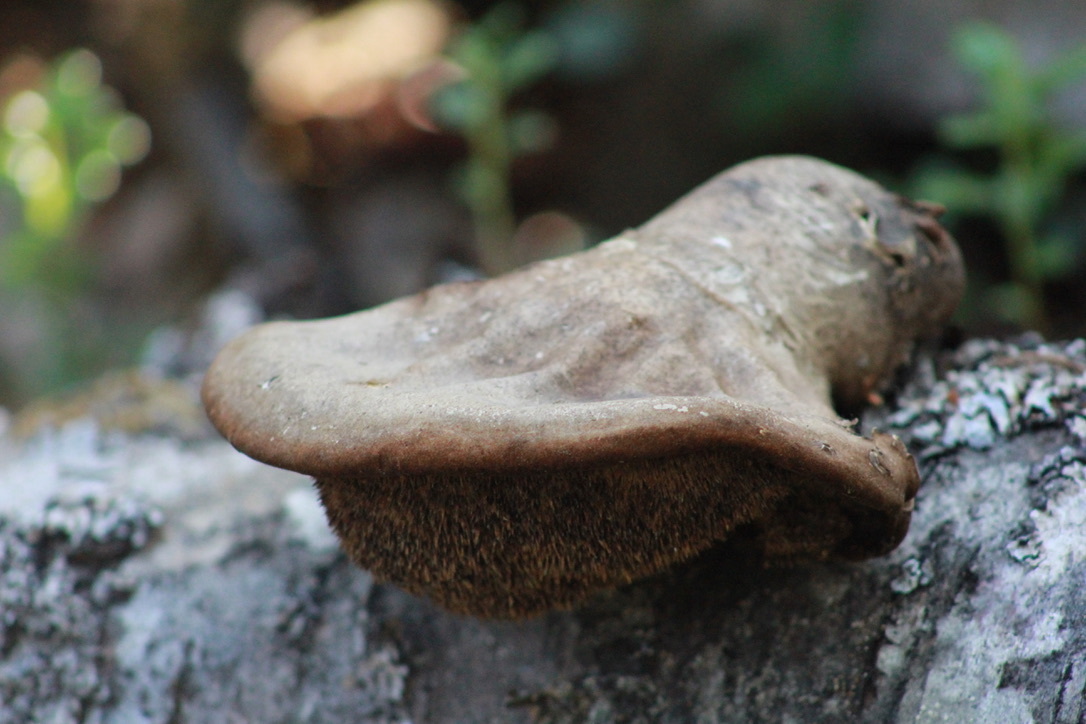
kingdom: Fungi
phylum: Basidiomycota
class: Agaricomycetes
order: Polyporales
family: Fomitopsidaceae
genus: Fomitopsis
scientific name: Fomitopsis betulina
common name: Birch polypore
